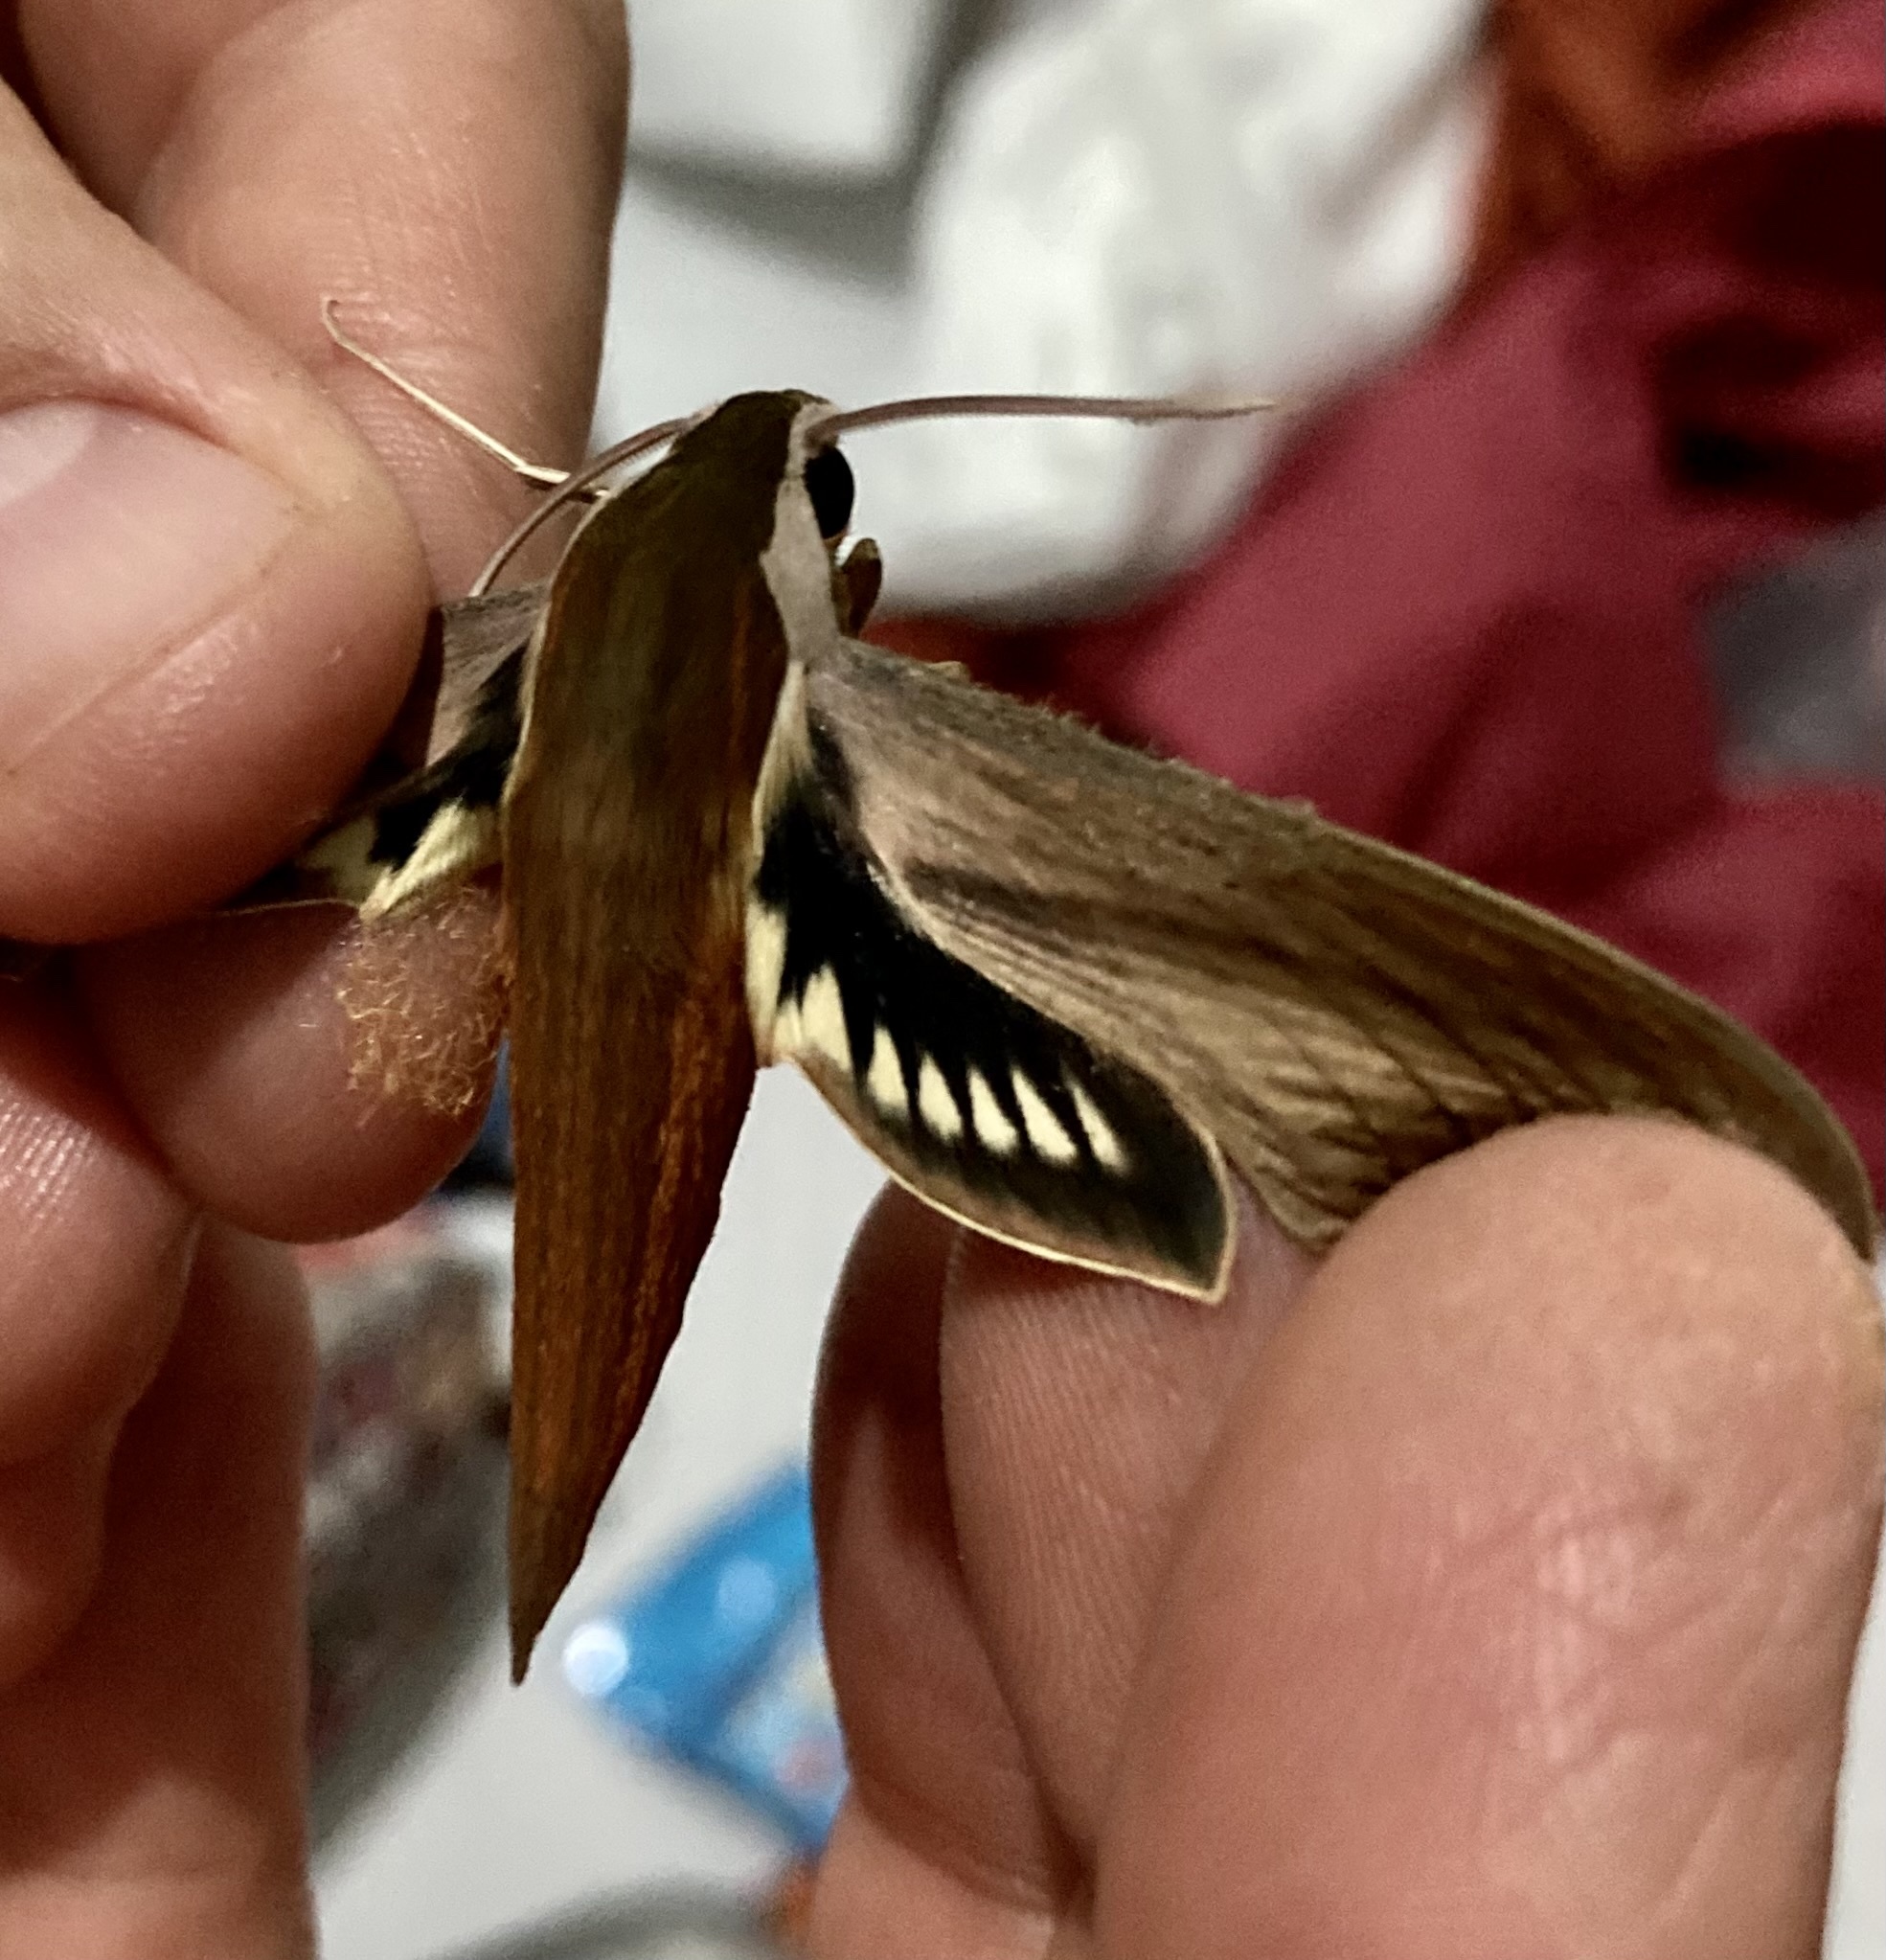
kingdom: Animalia
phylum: Arthropoda
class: Insecta
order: Lepidoptera
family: Sphingidae
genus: Xylophanes
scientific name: Xylophanes tersa
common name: Tersa sphinx
